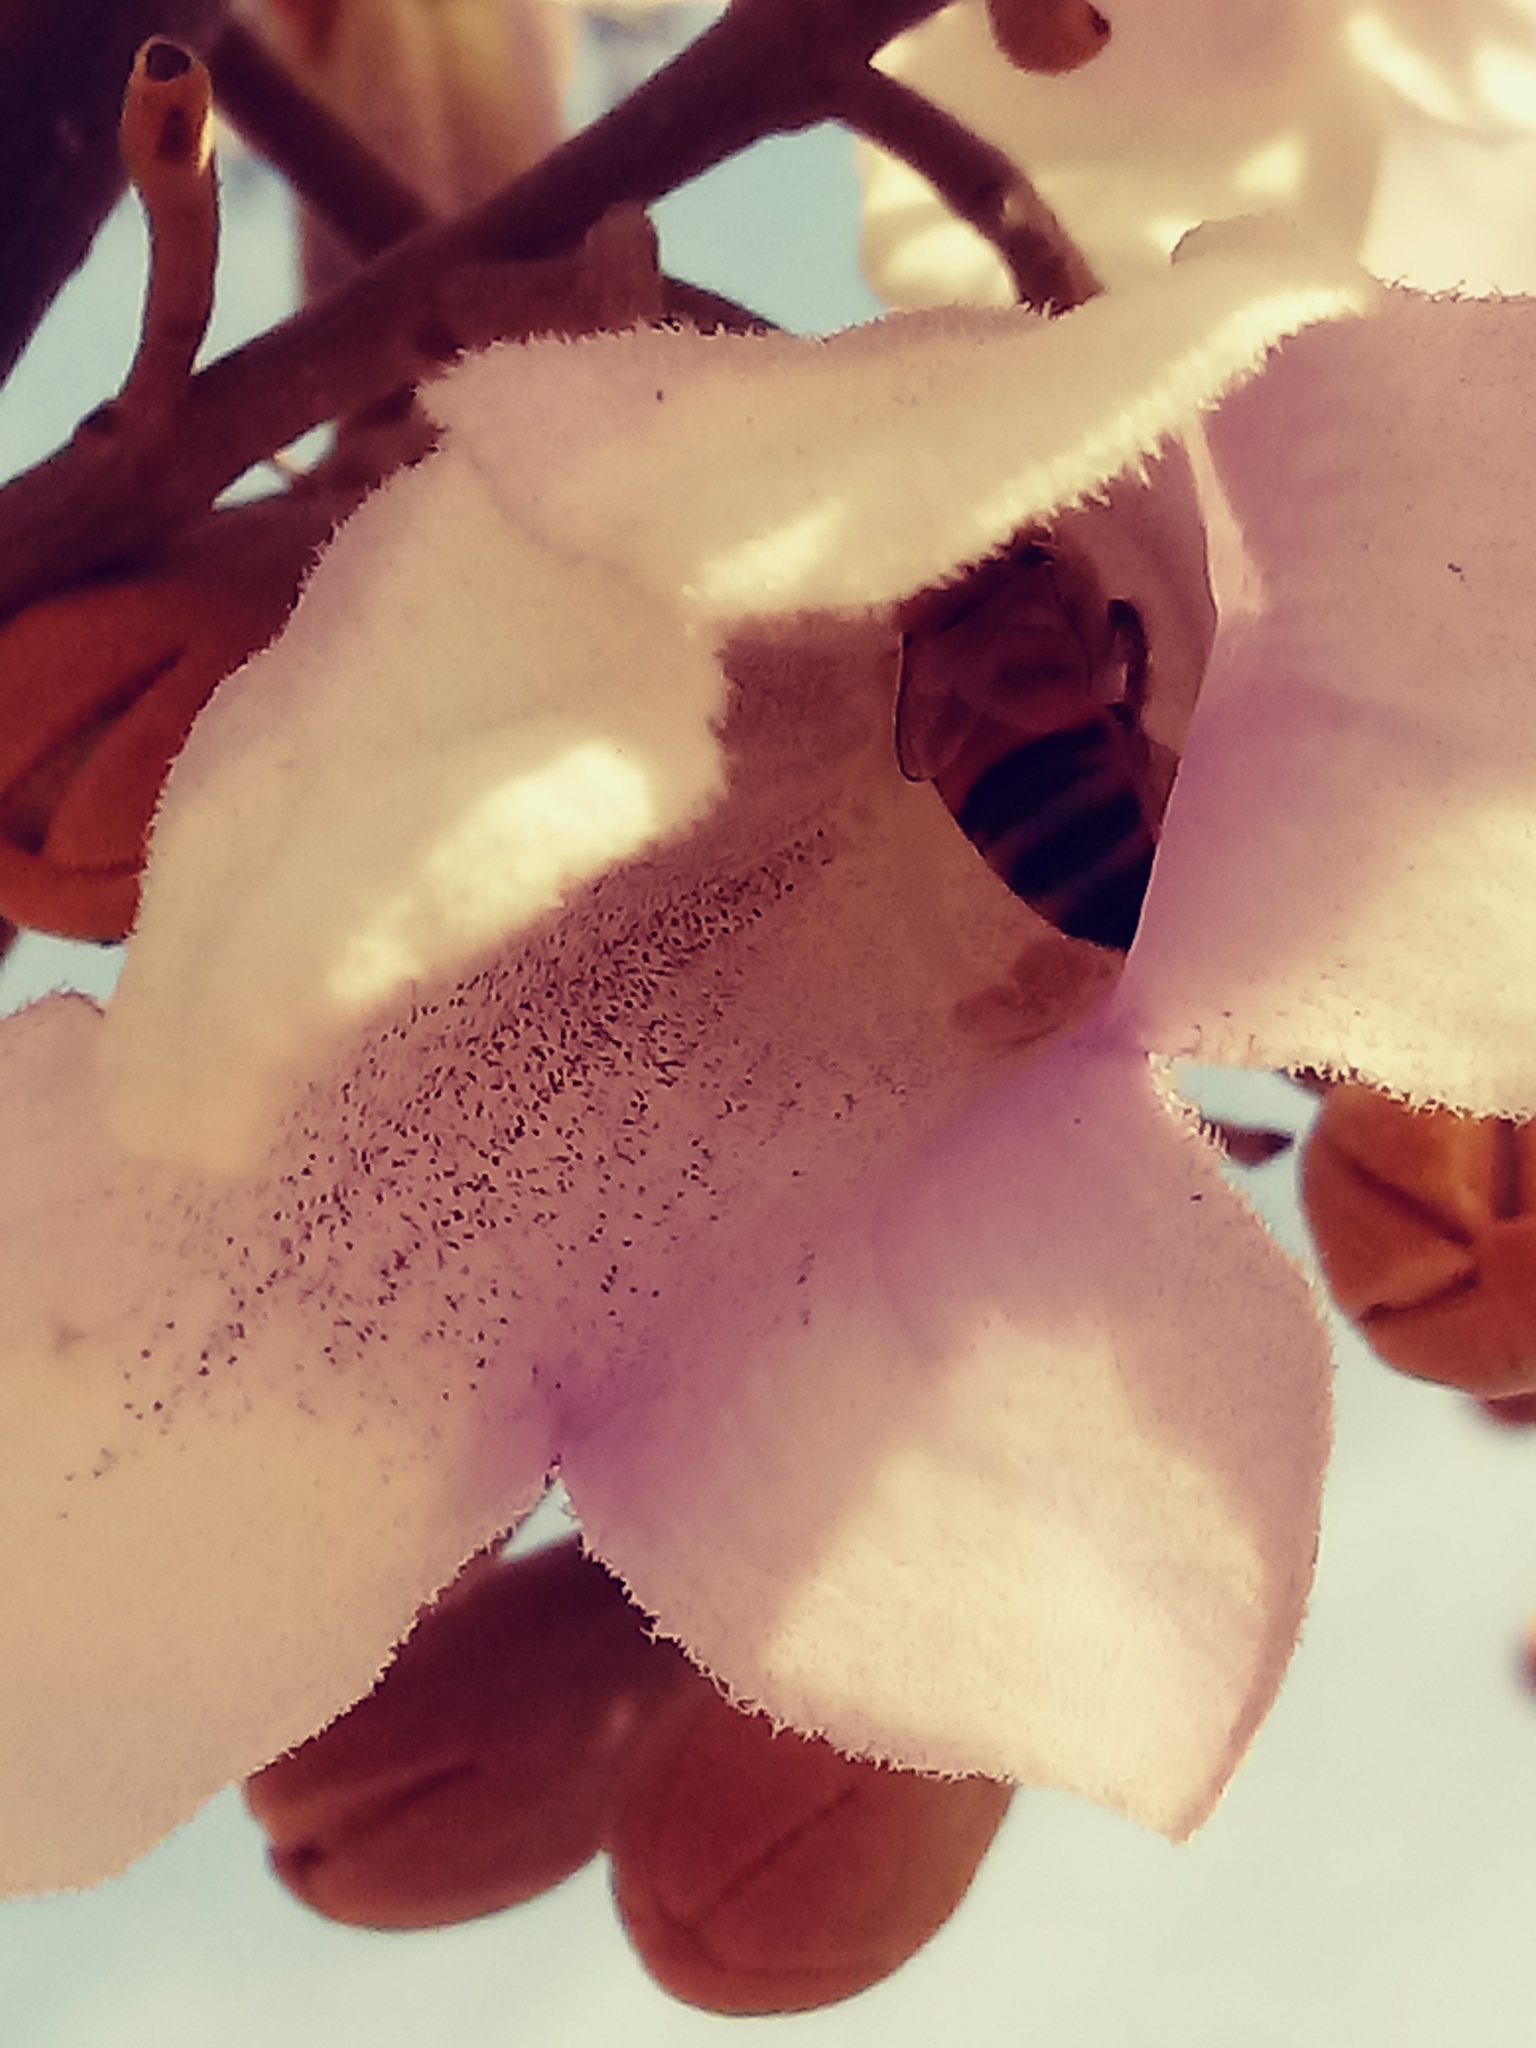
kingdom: Animalia
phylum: Arthropoda
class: Insecta
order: Hymenoptera
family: Apidae
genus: Apis
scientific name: Apis mellifera
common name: Honey bee
